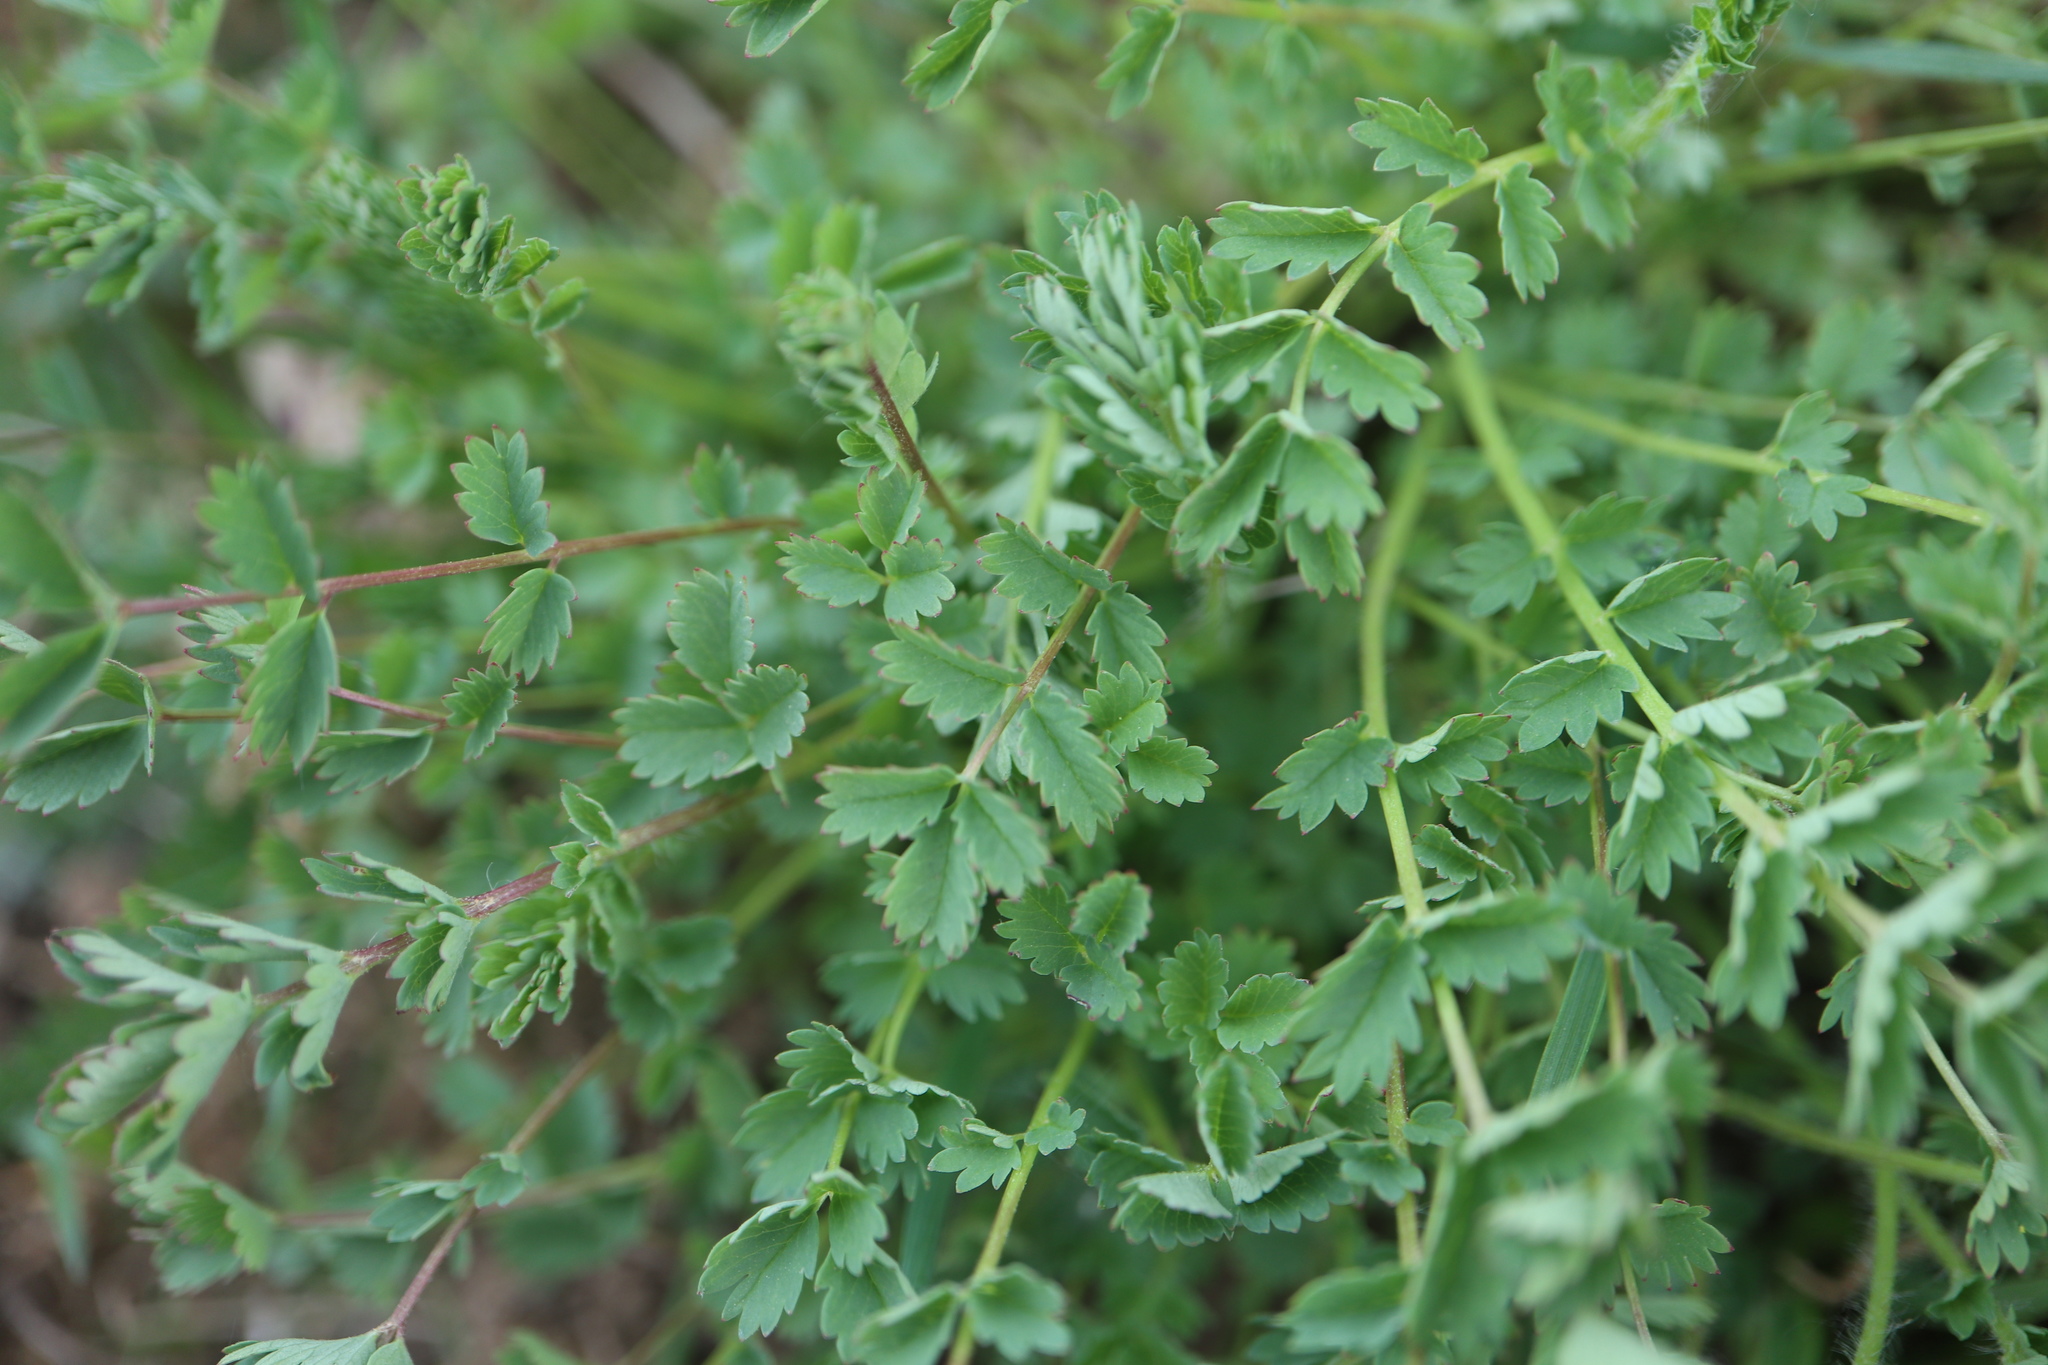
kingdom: Plantae
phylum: Tracheophyta
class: Magnoliopsida
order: Rosales
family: Rosaceae
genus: Poterium
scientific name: Poterium sanguisorba
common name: Salad burnet
